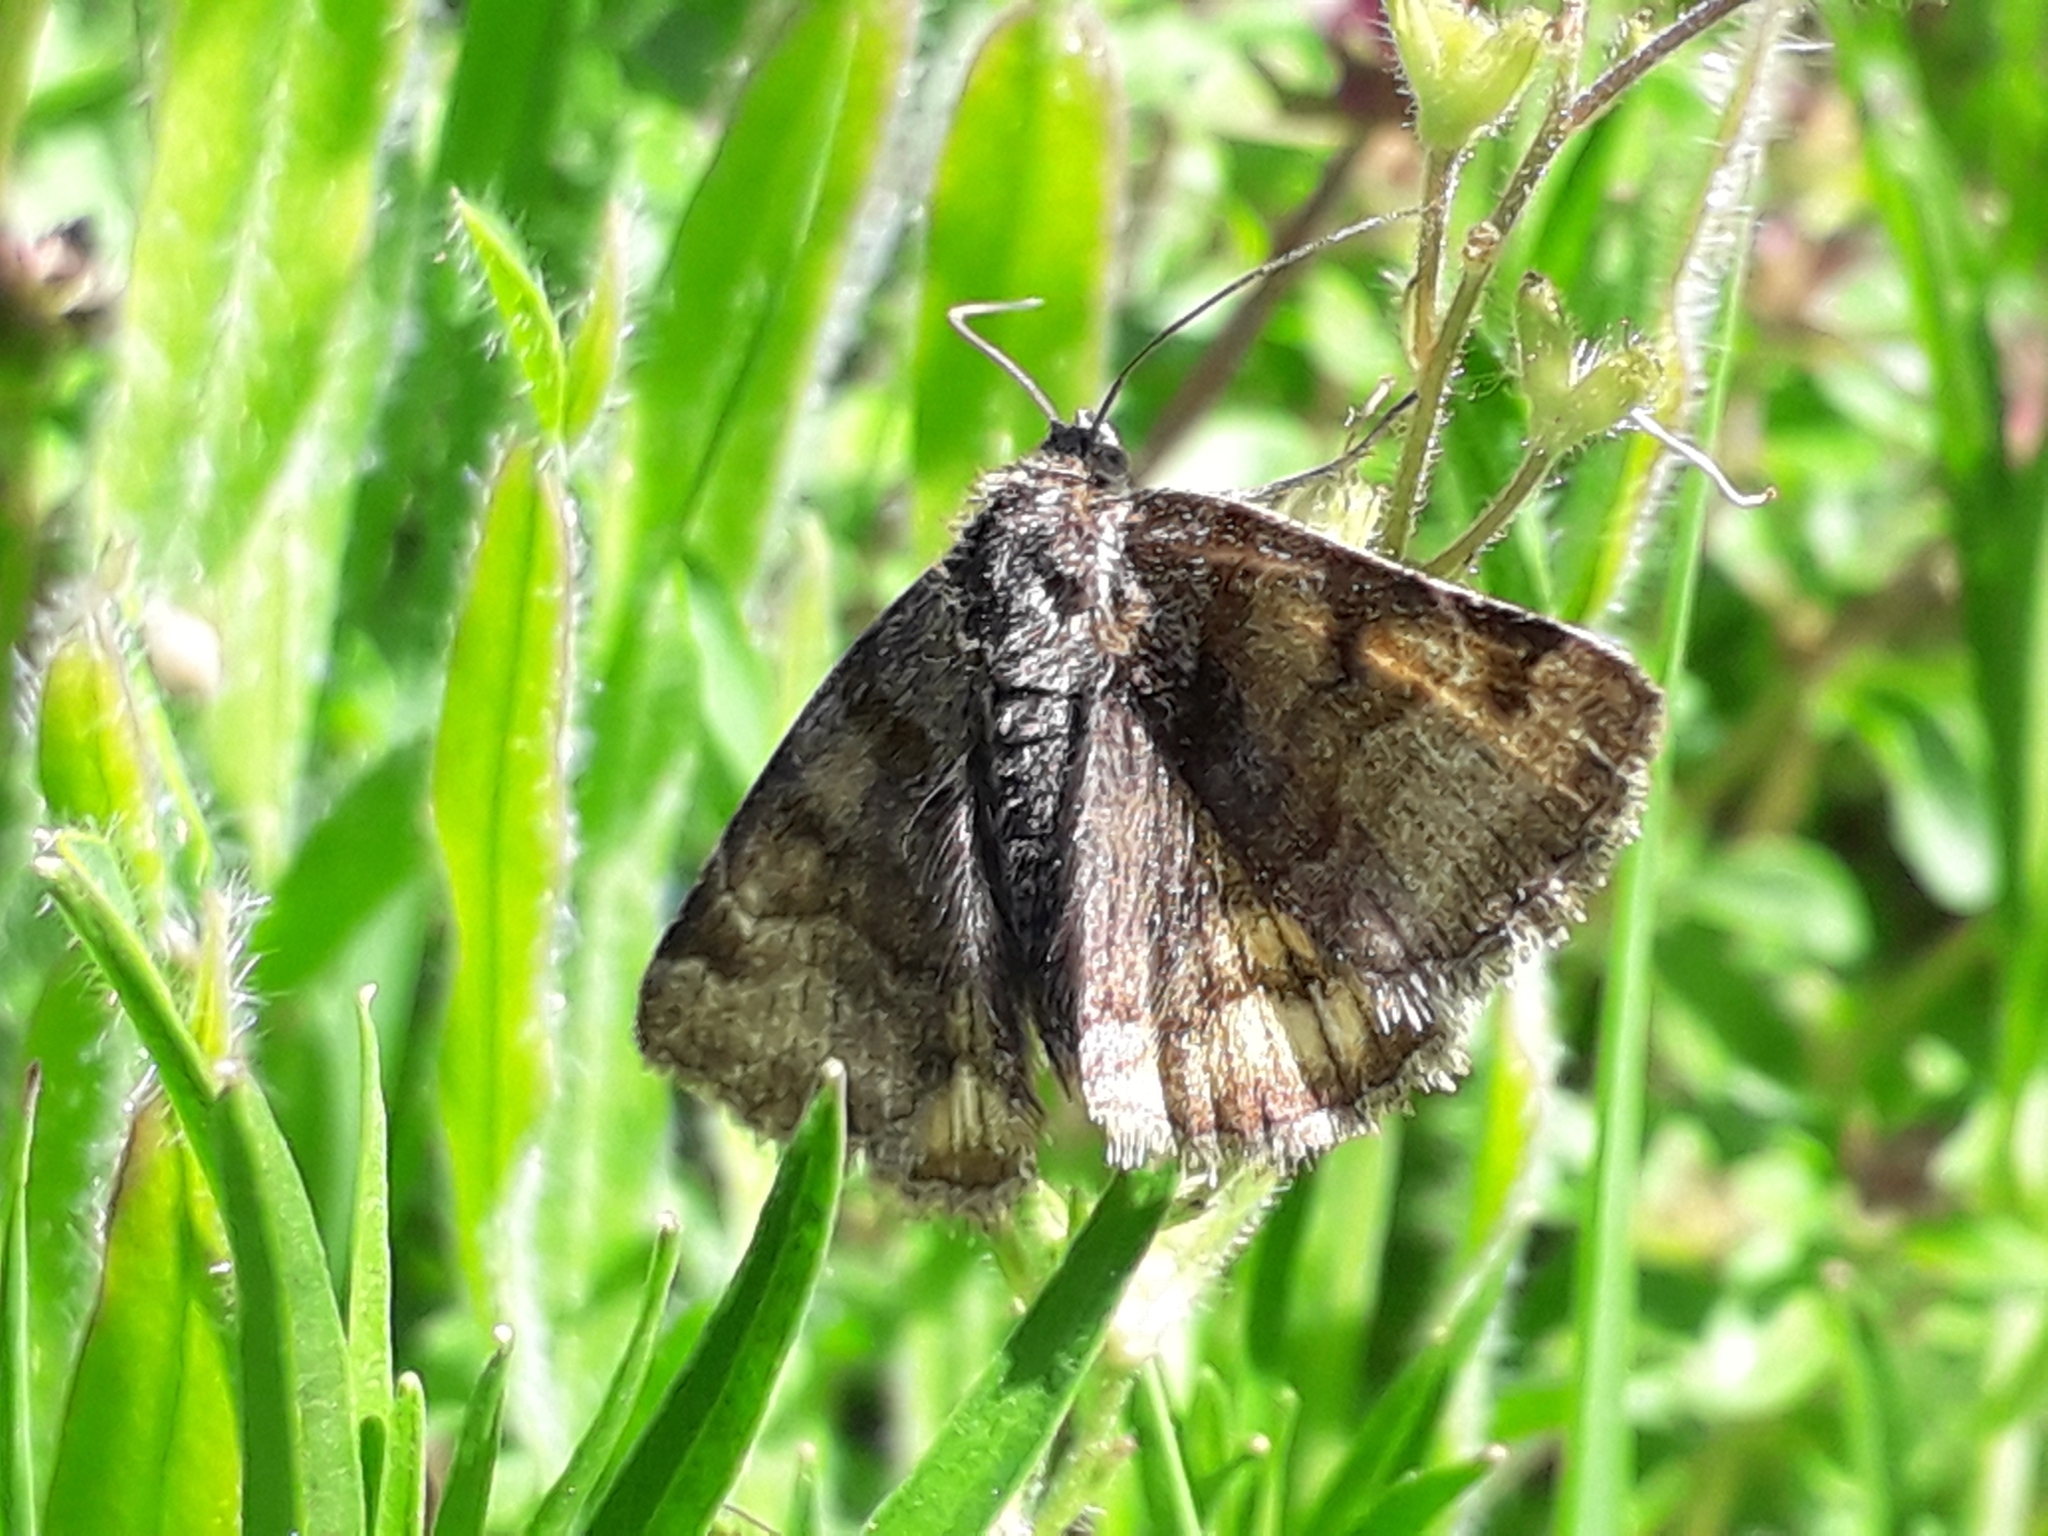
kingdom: Animalia
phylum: Arthropoda
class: Insecta
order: Lepidoptera
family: Erebidae
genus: Euclidia
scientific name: Euclidia glyphica
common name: Burnet companion
